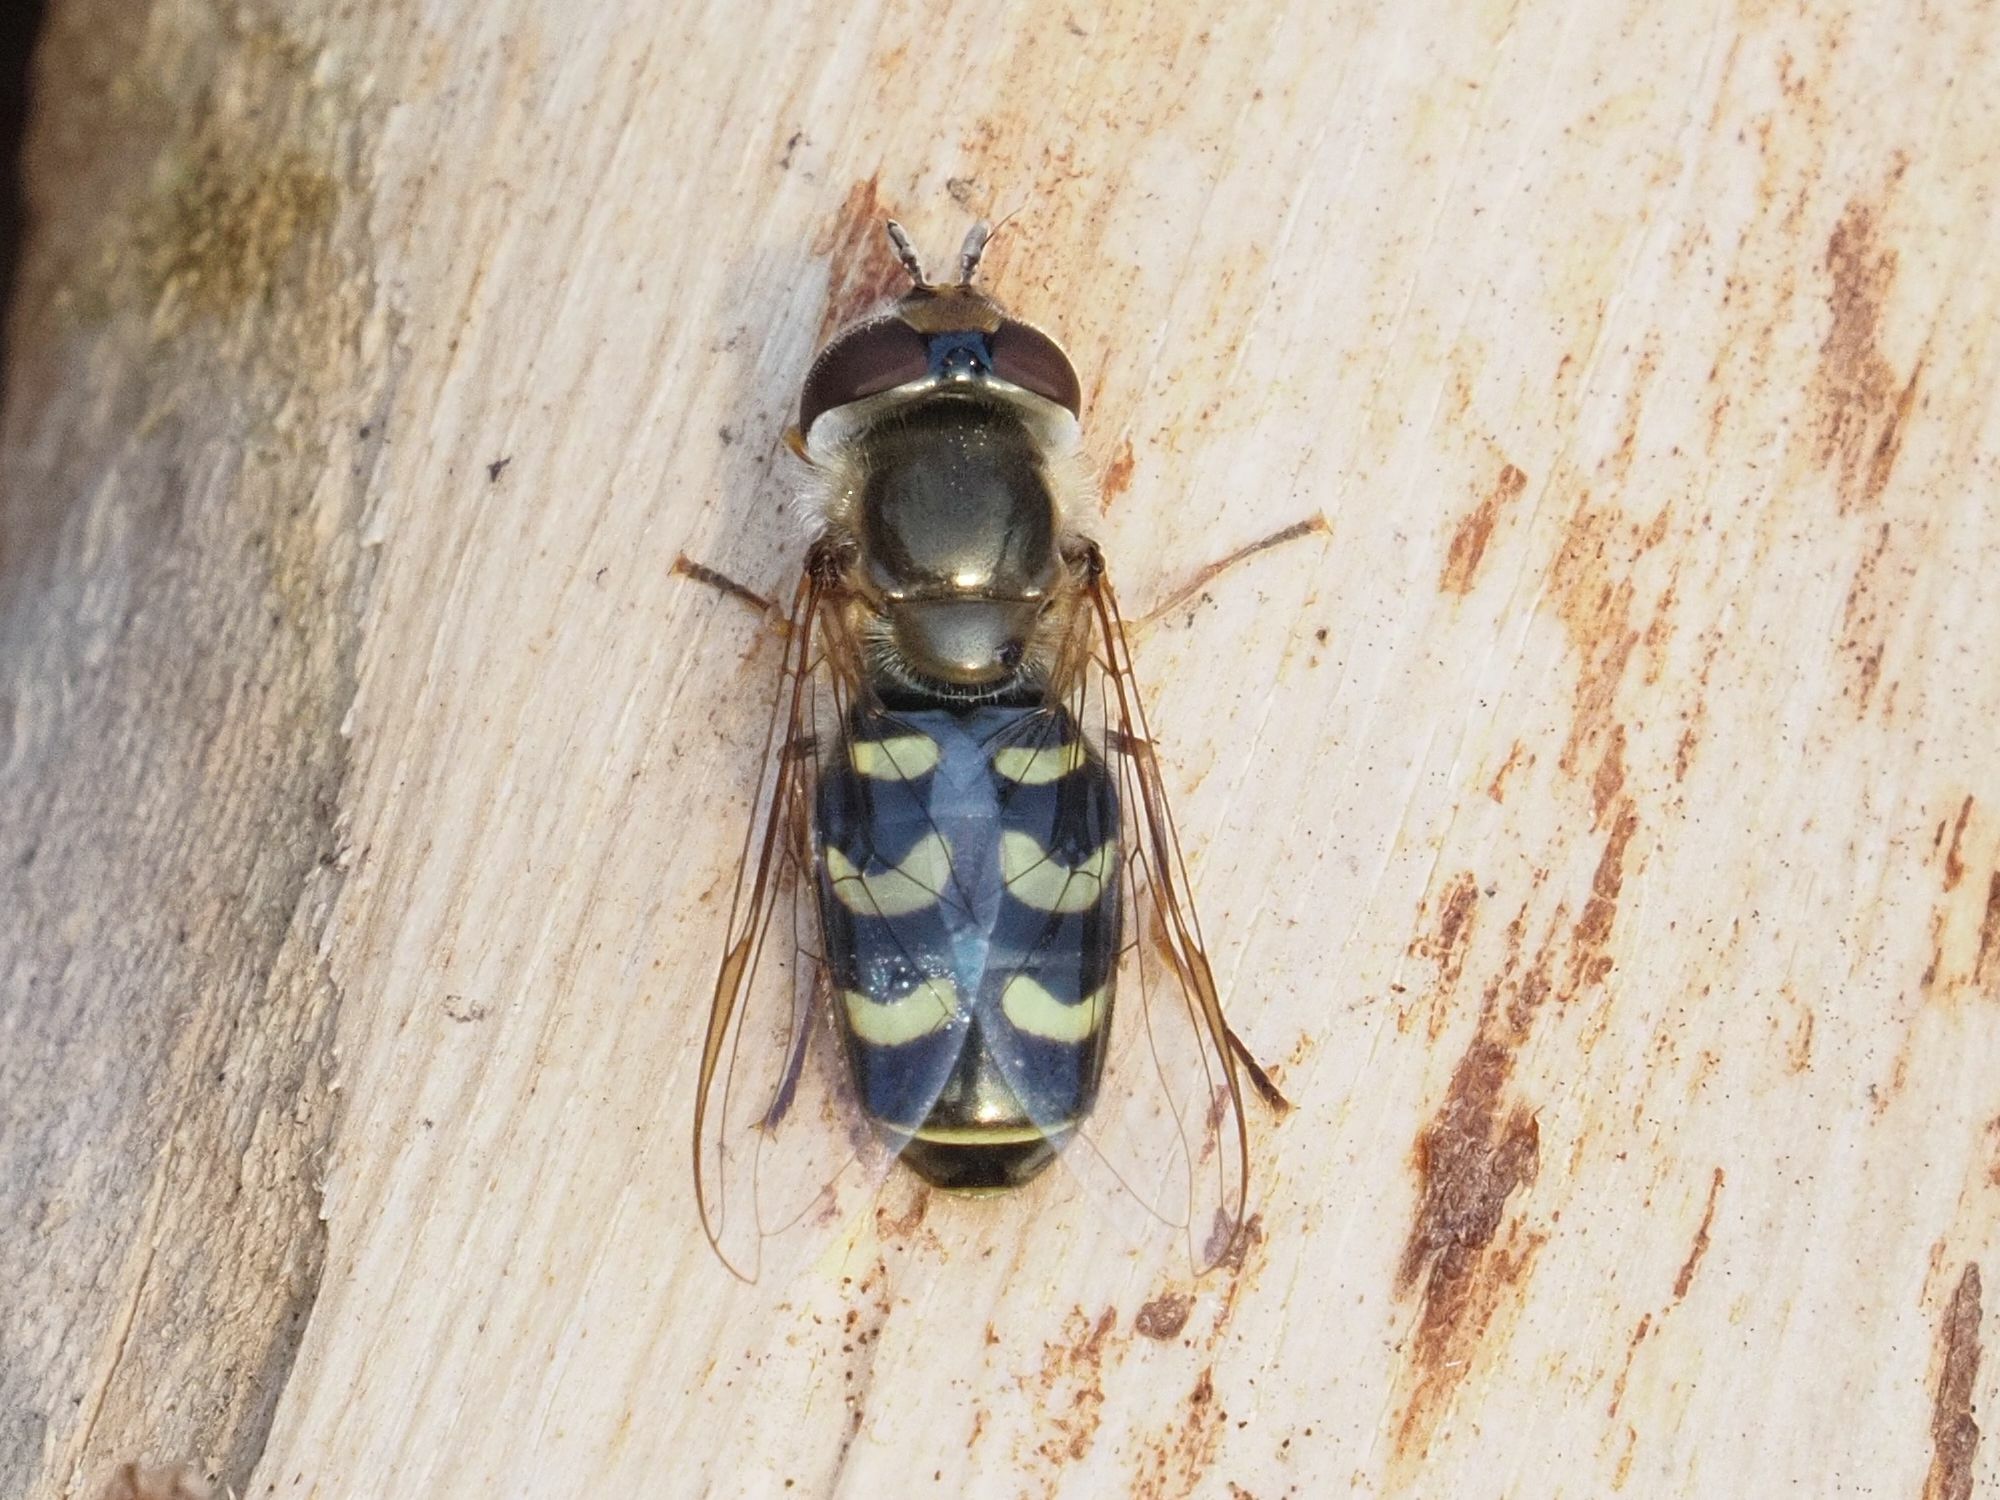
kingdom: Animalia
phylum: Arthropoda
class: Insecta
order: Diptera
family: Syrphidae
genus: Scaeva
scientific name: Scaeva selenitica
